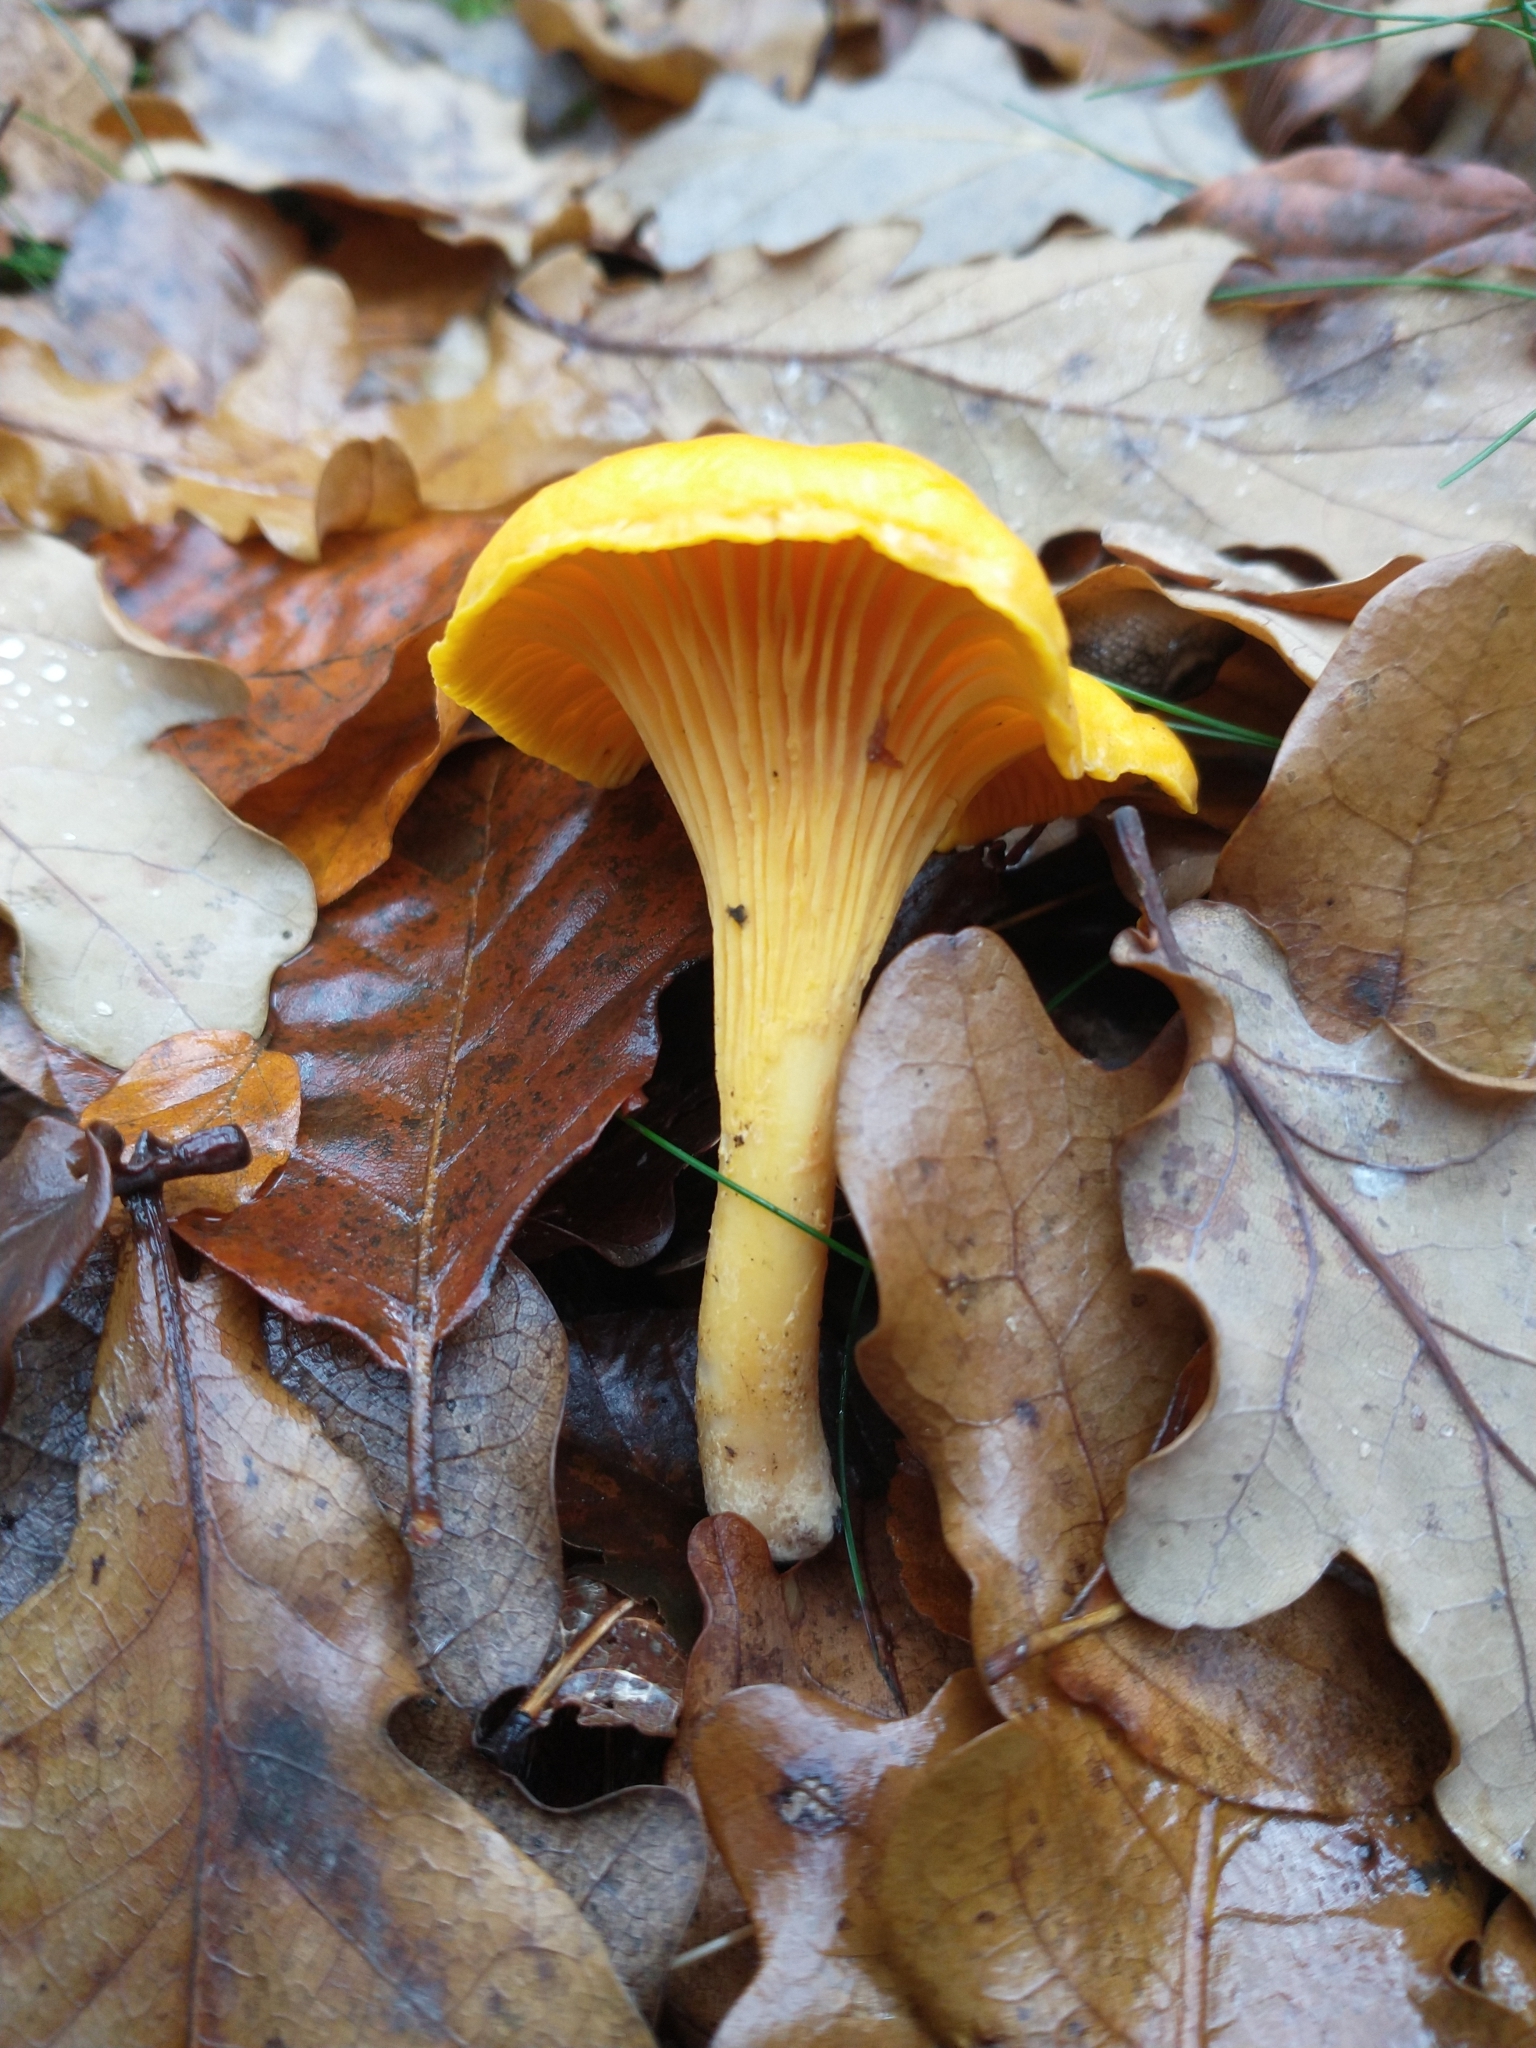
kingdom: Fungi
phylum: Basidiomycota
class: Agaricomycetes
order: Cantharellales
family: Hydnaceae
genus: Cantharellus
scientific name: Cantharellus cibarius
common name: Chanterelle
